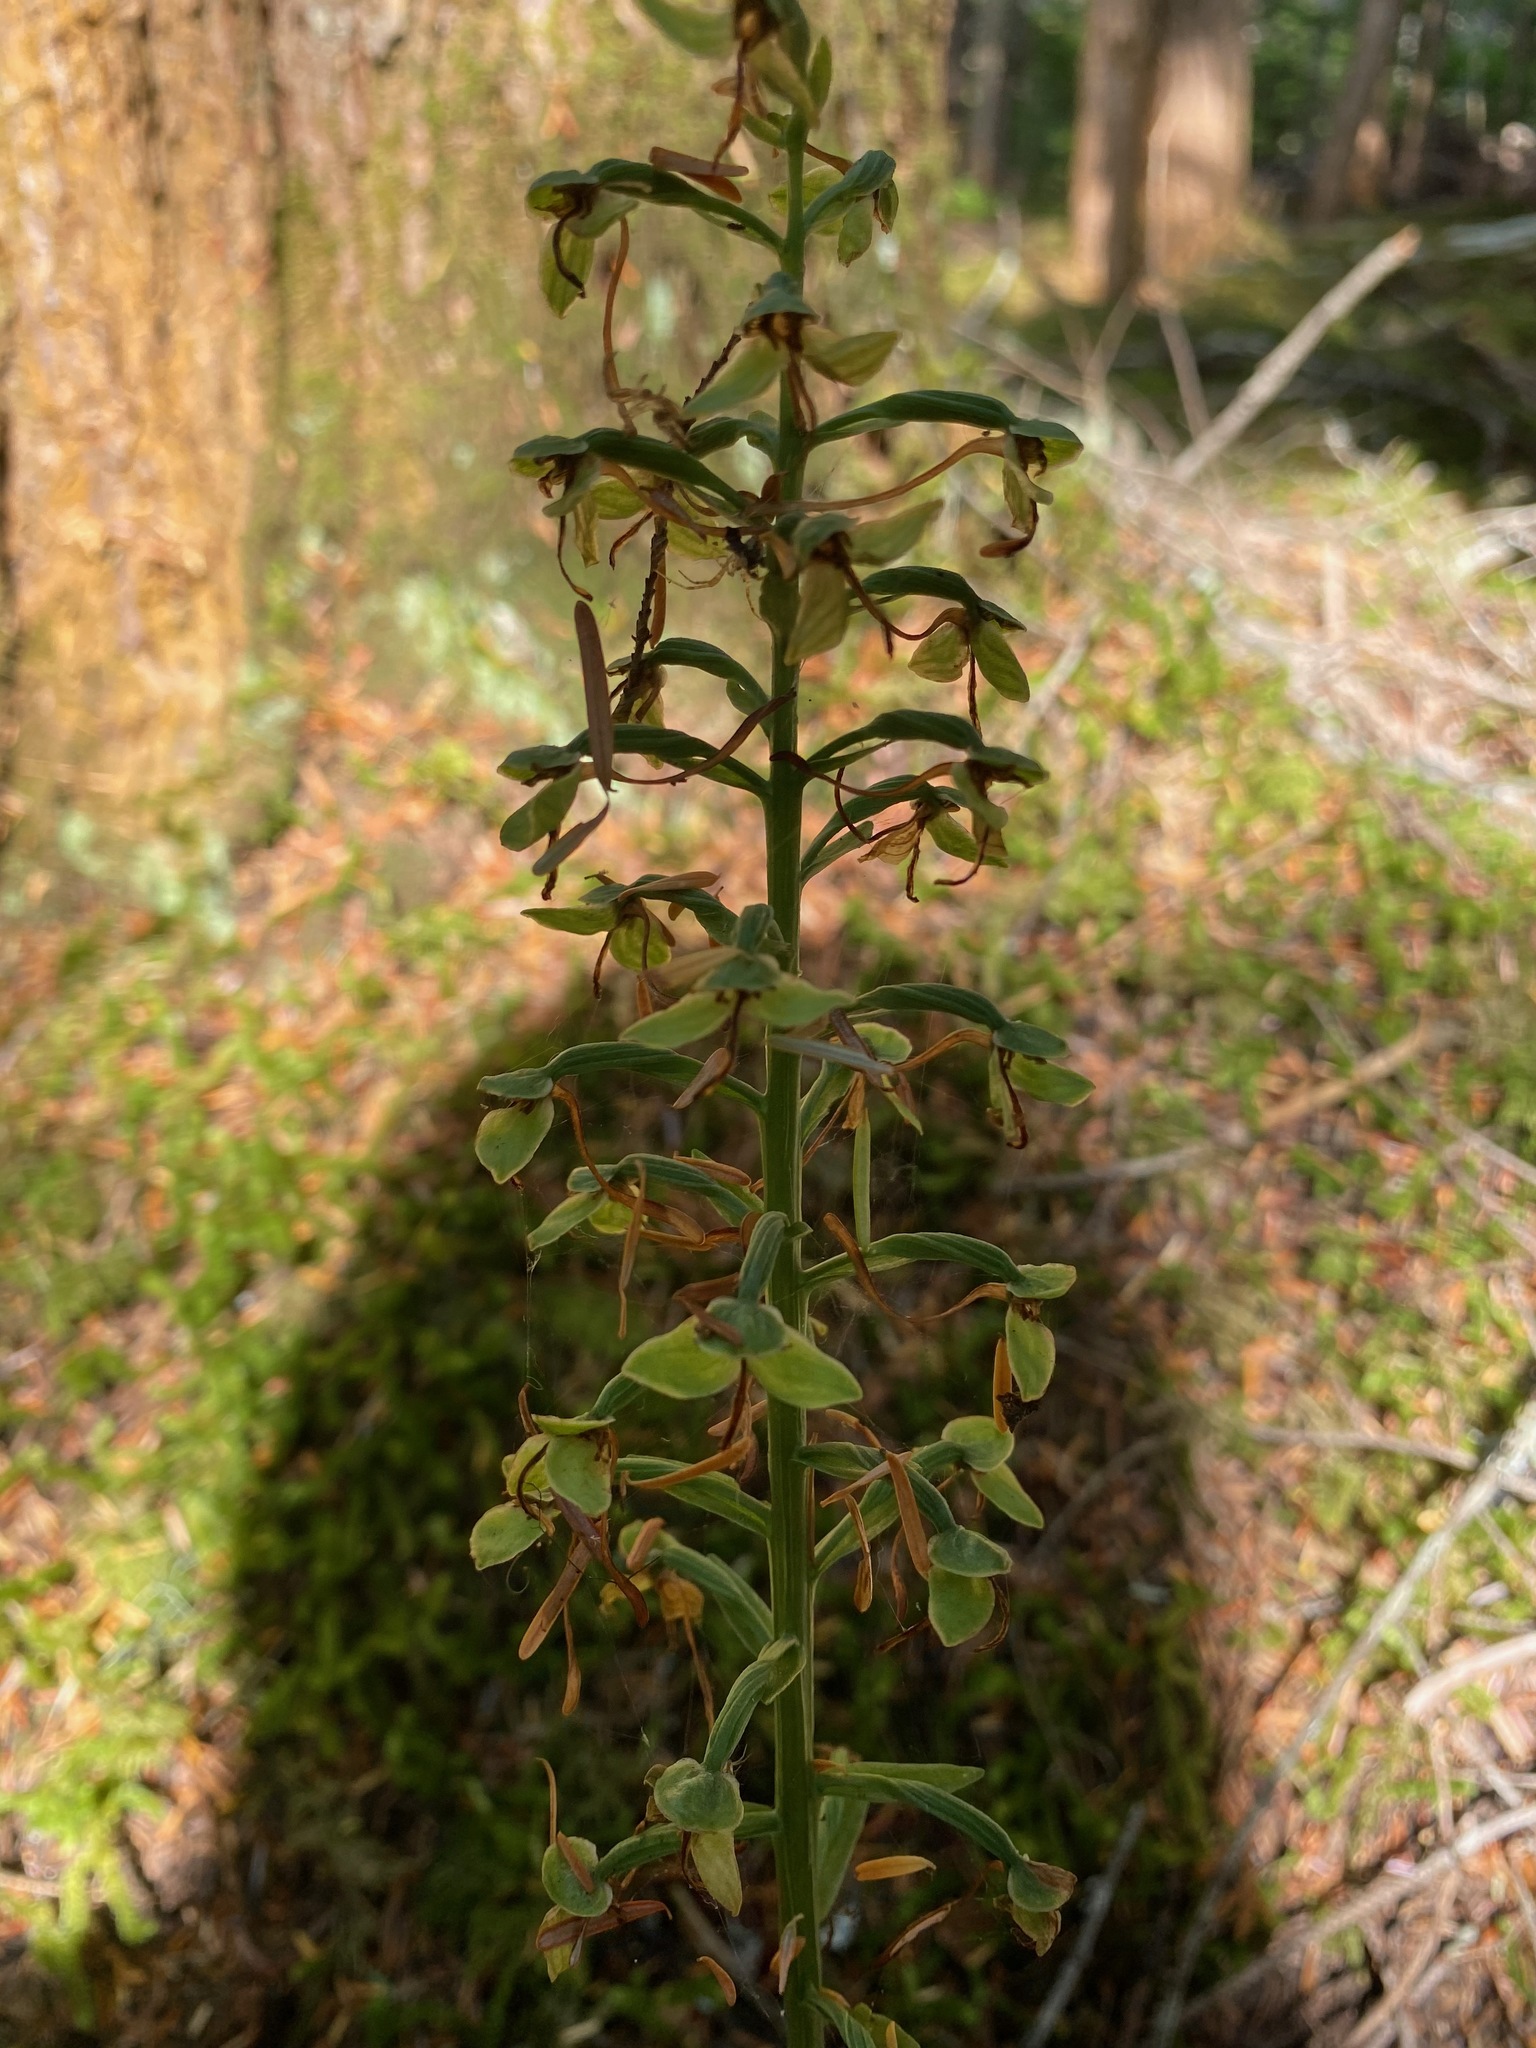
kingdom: Plantae
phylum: Tracheophyta
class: Liliopsida
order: Asparagales
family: Orchidaceae
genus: Platanthera
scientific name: Platanthera orbiculata
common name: Large round-leaved orchid
